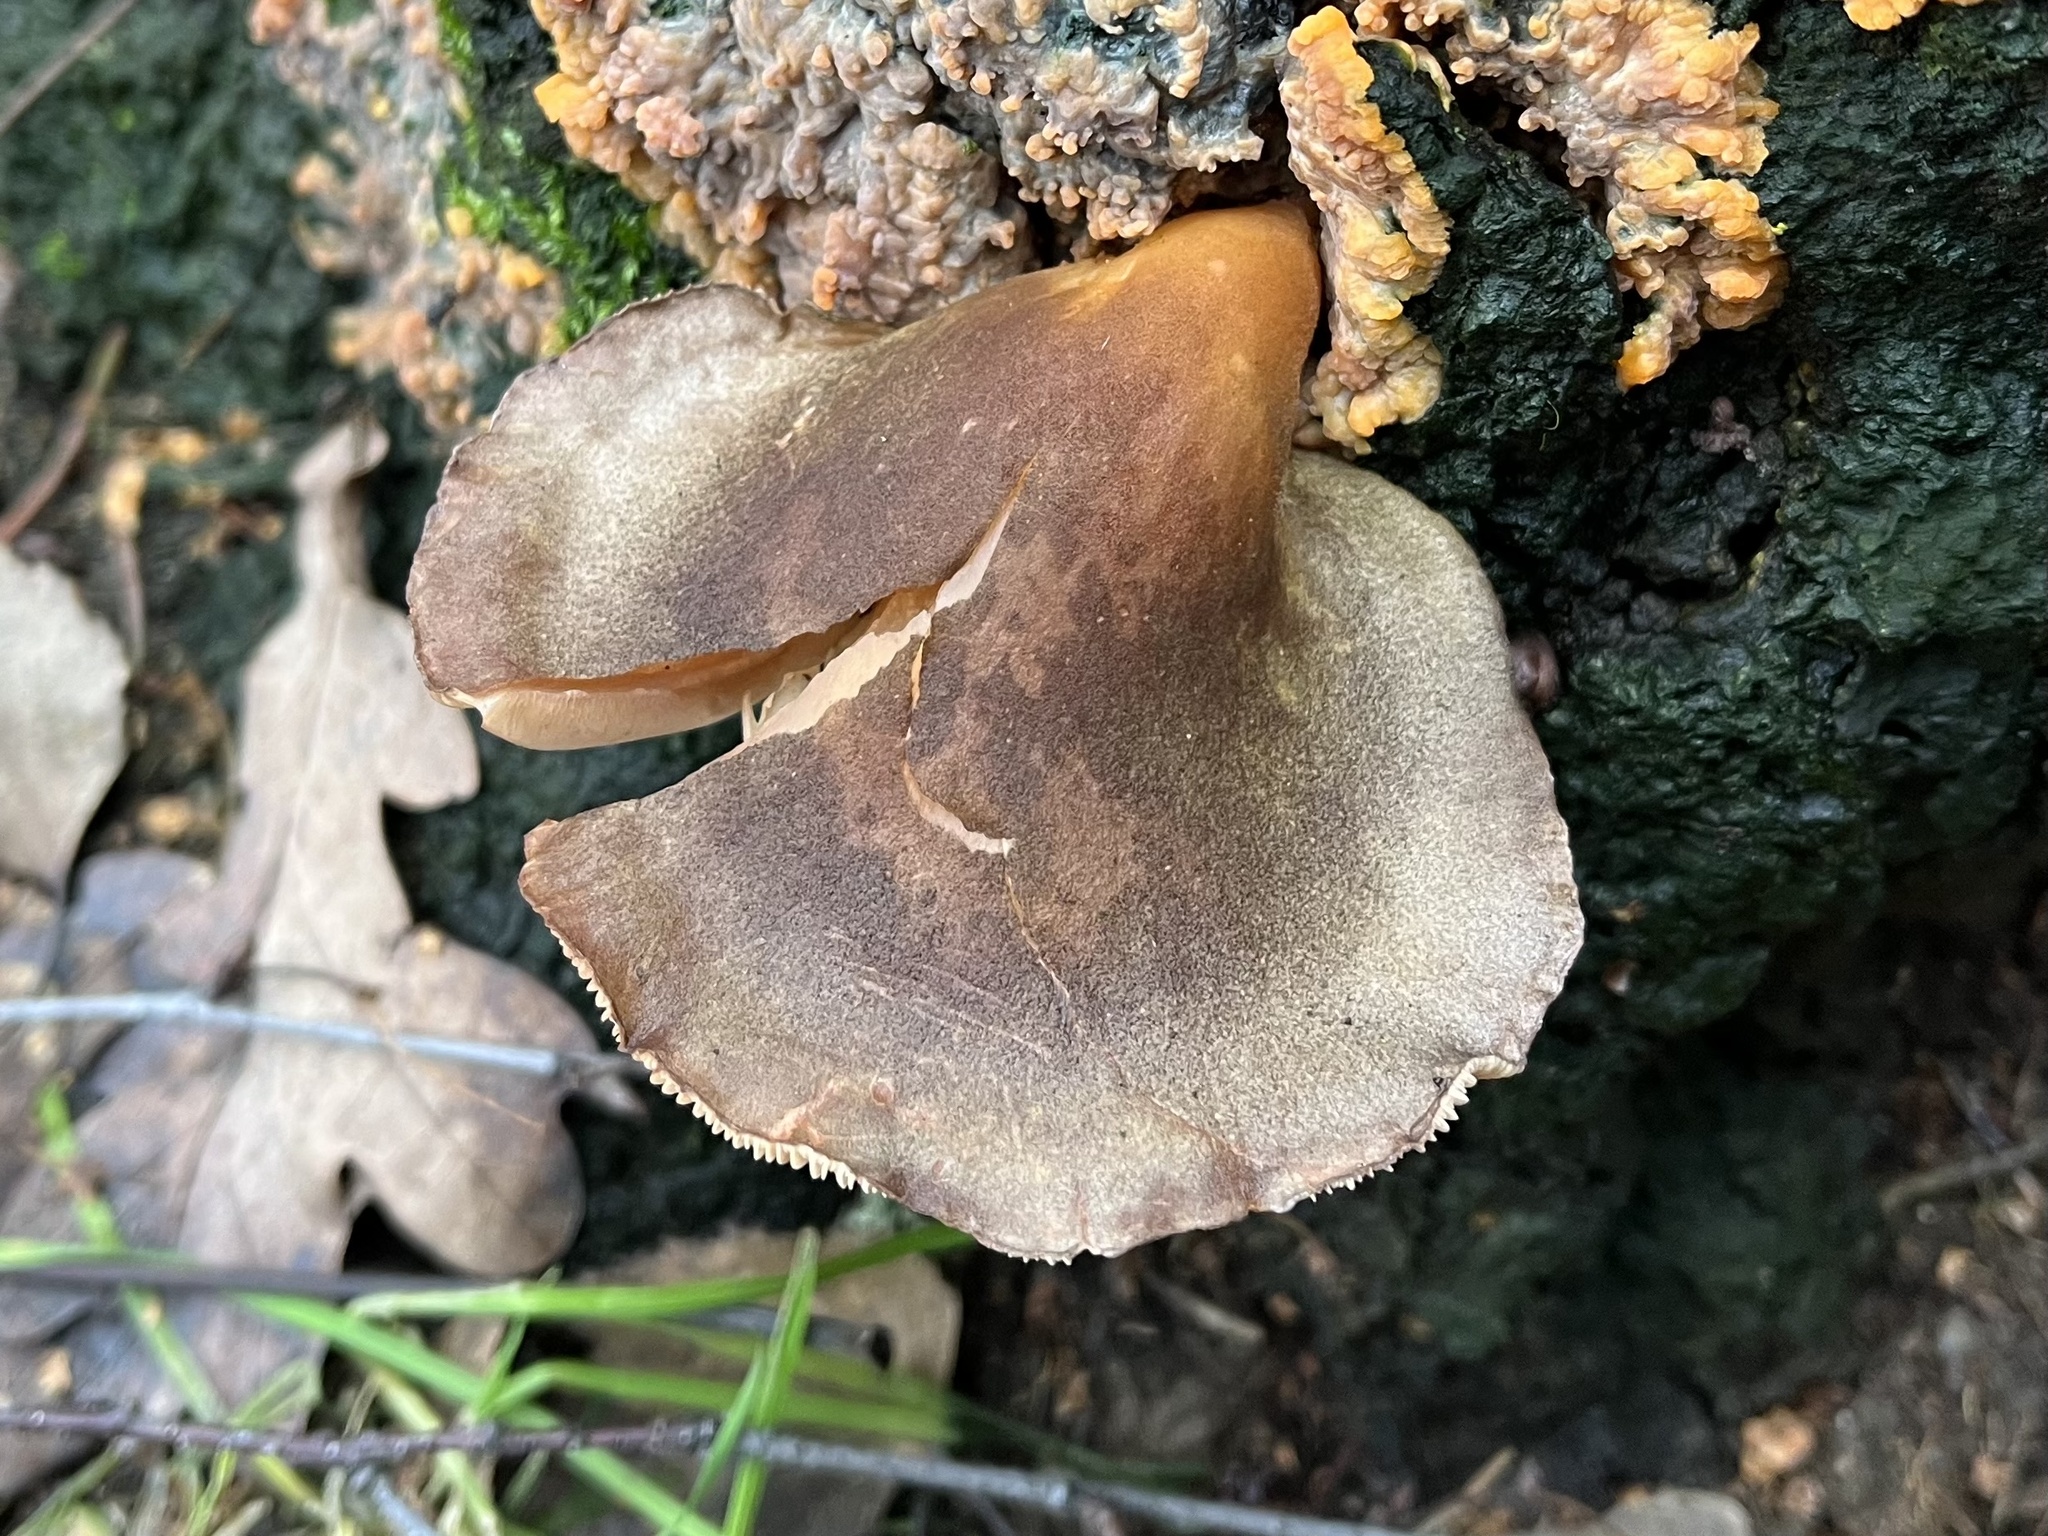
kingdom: Fungi
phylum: Basidiomycota
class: Agaricomycetes
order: Agaricales
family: Sarcomyxaceae
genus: Sarcomyxa
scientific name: Sarcomyxa serotina
